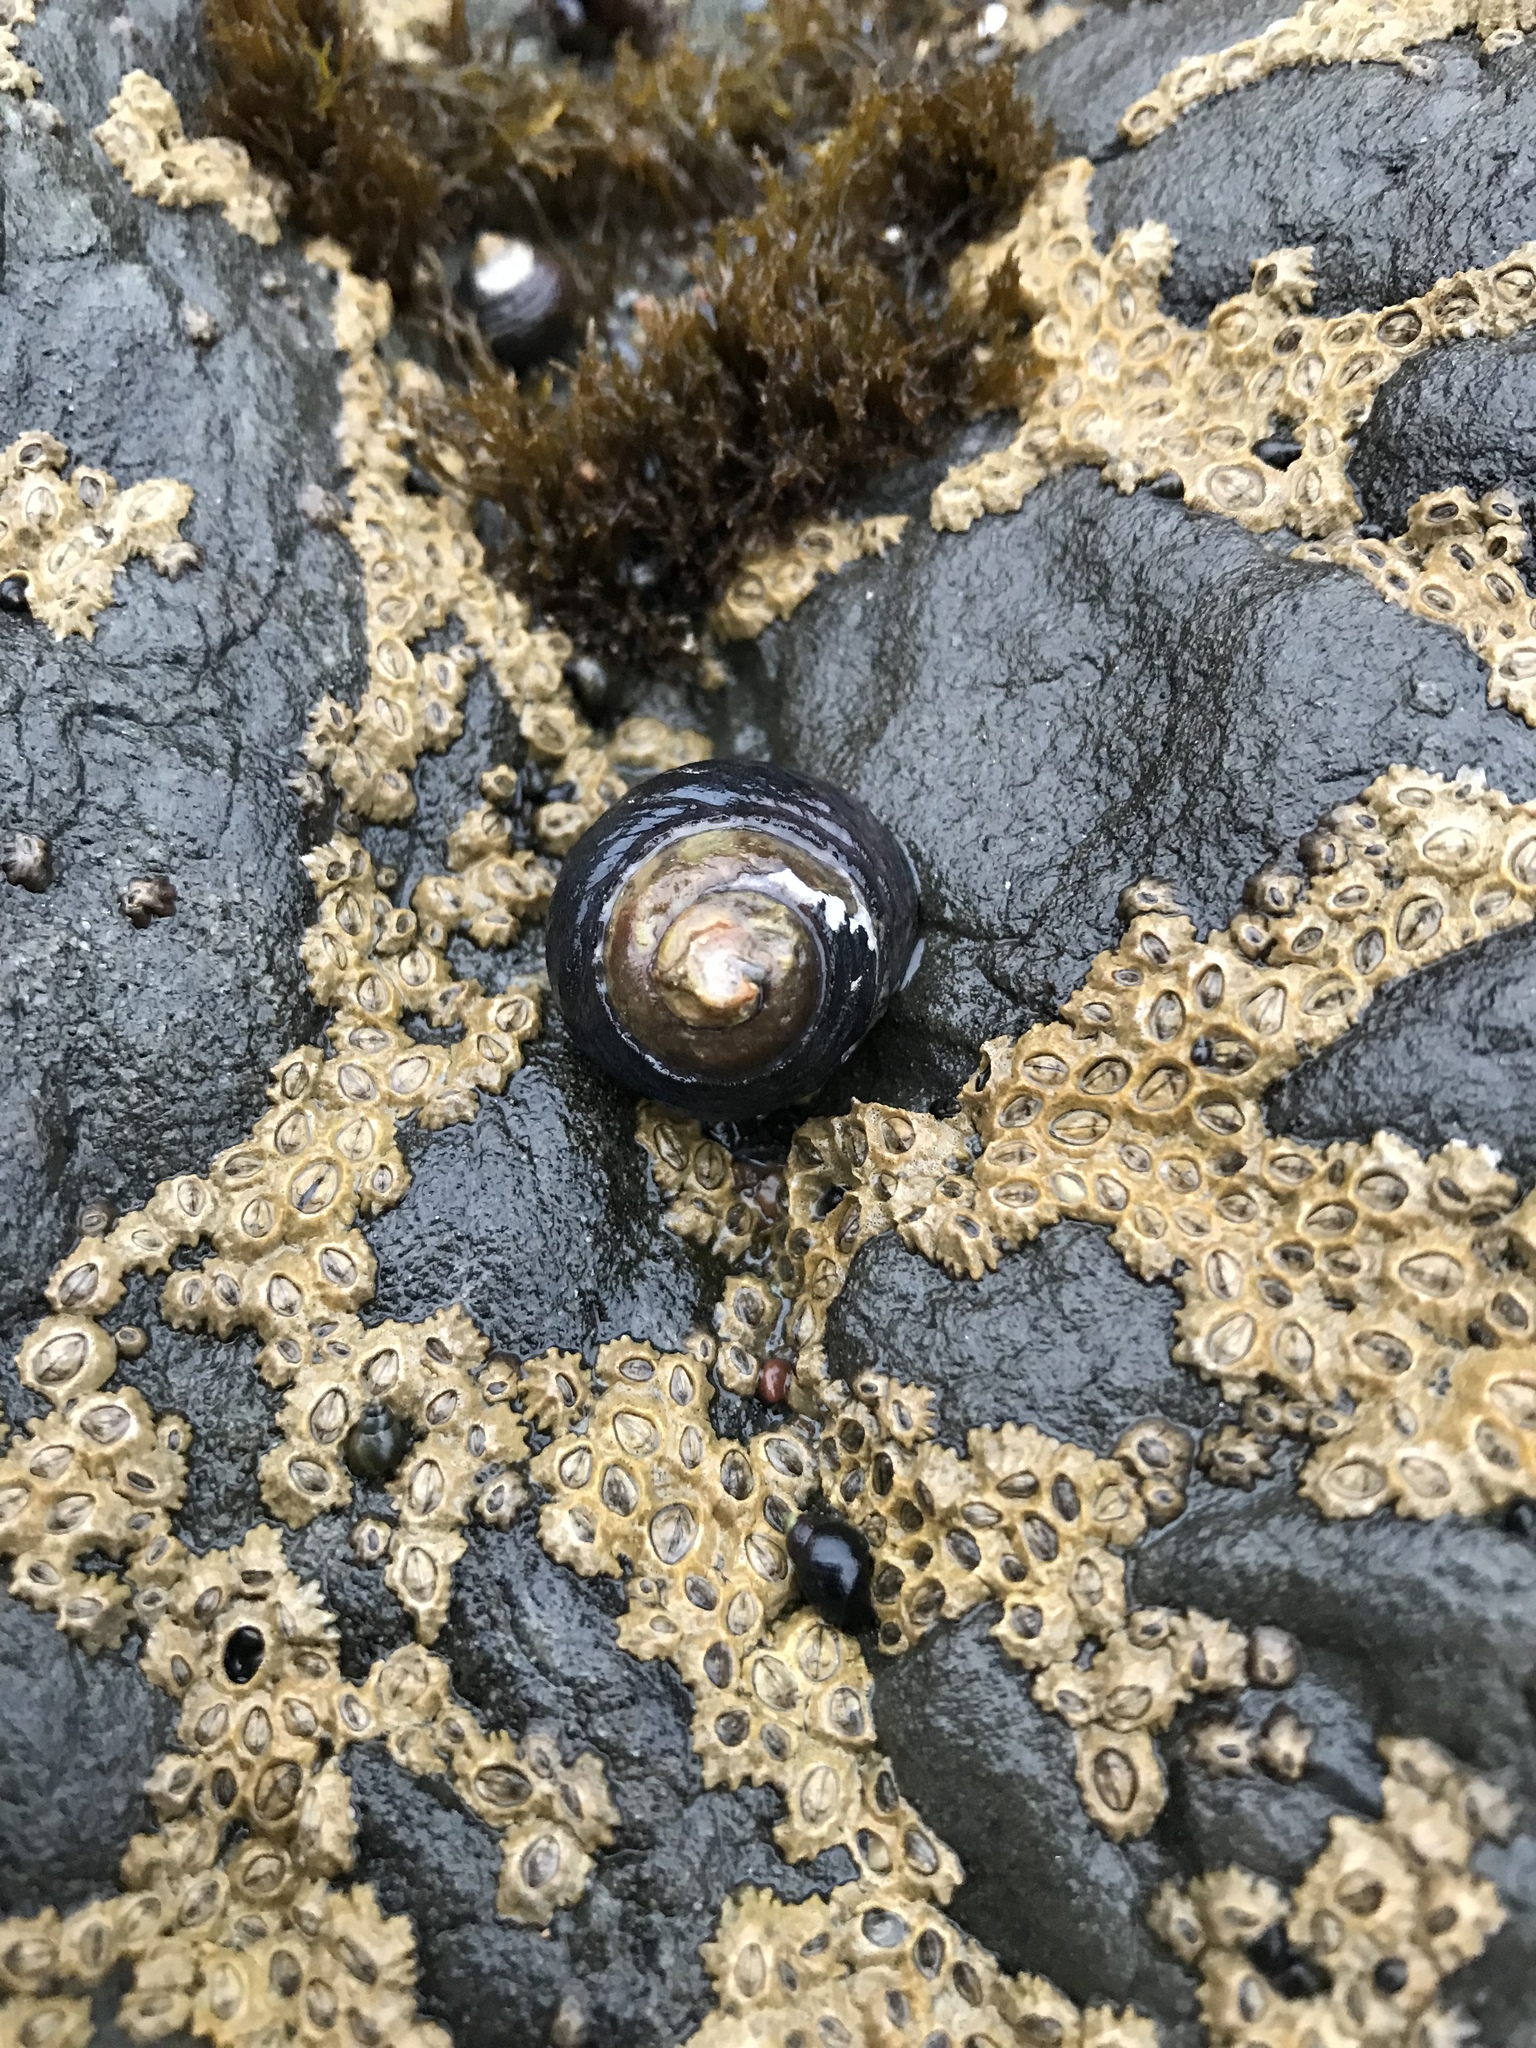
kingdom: Animalia
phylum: Mollusca
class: Gastropoda
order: Trochida
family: Tegulidae
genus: Tegula
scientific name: Tegula funebralis
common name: Black tegula
